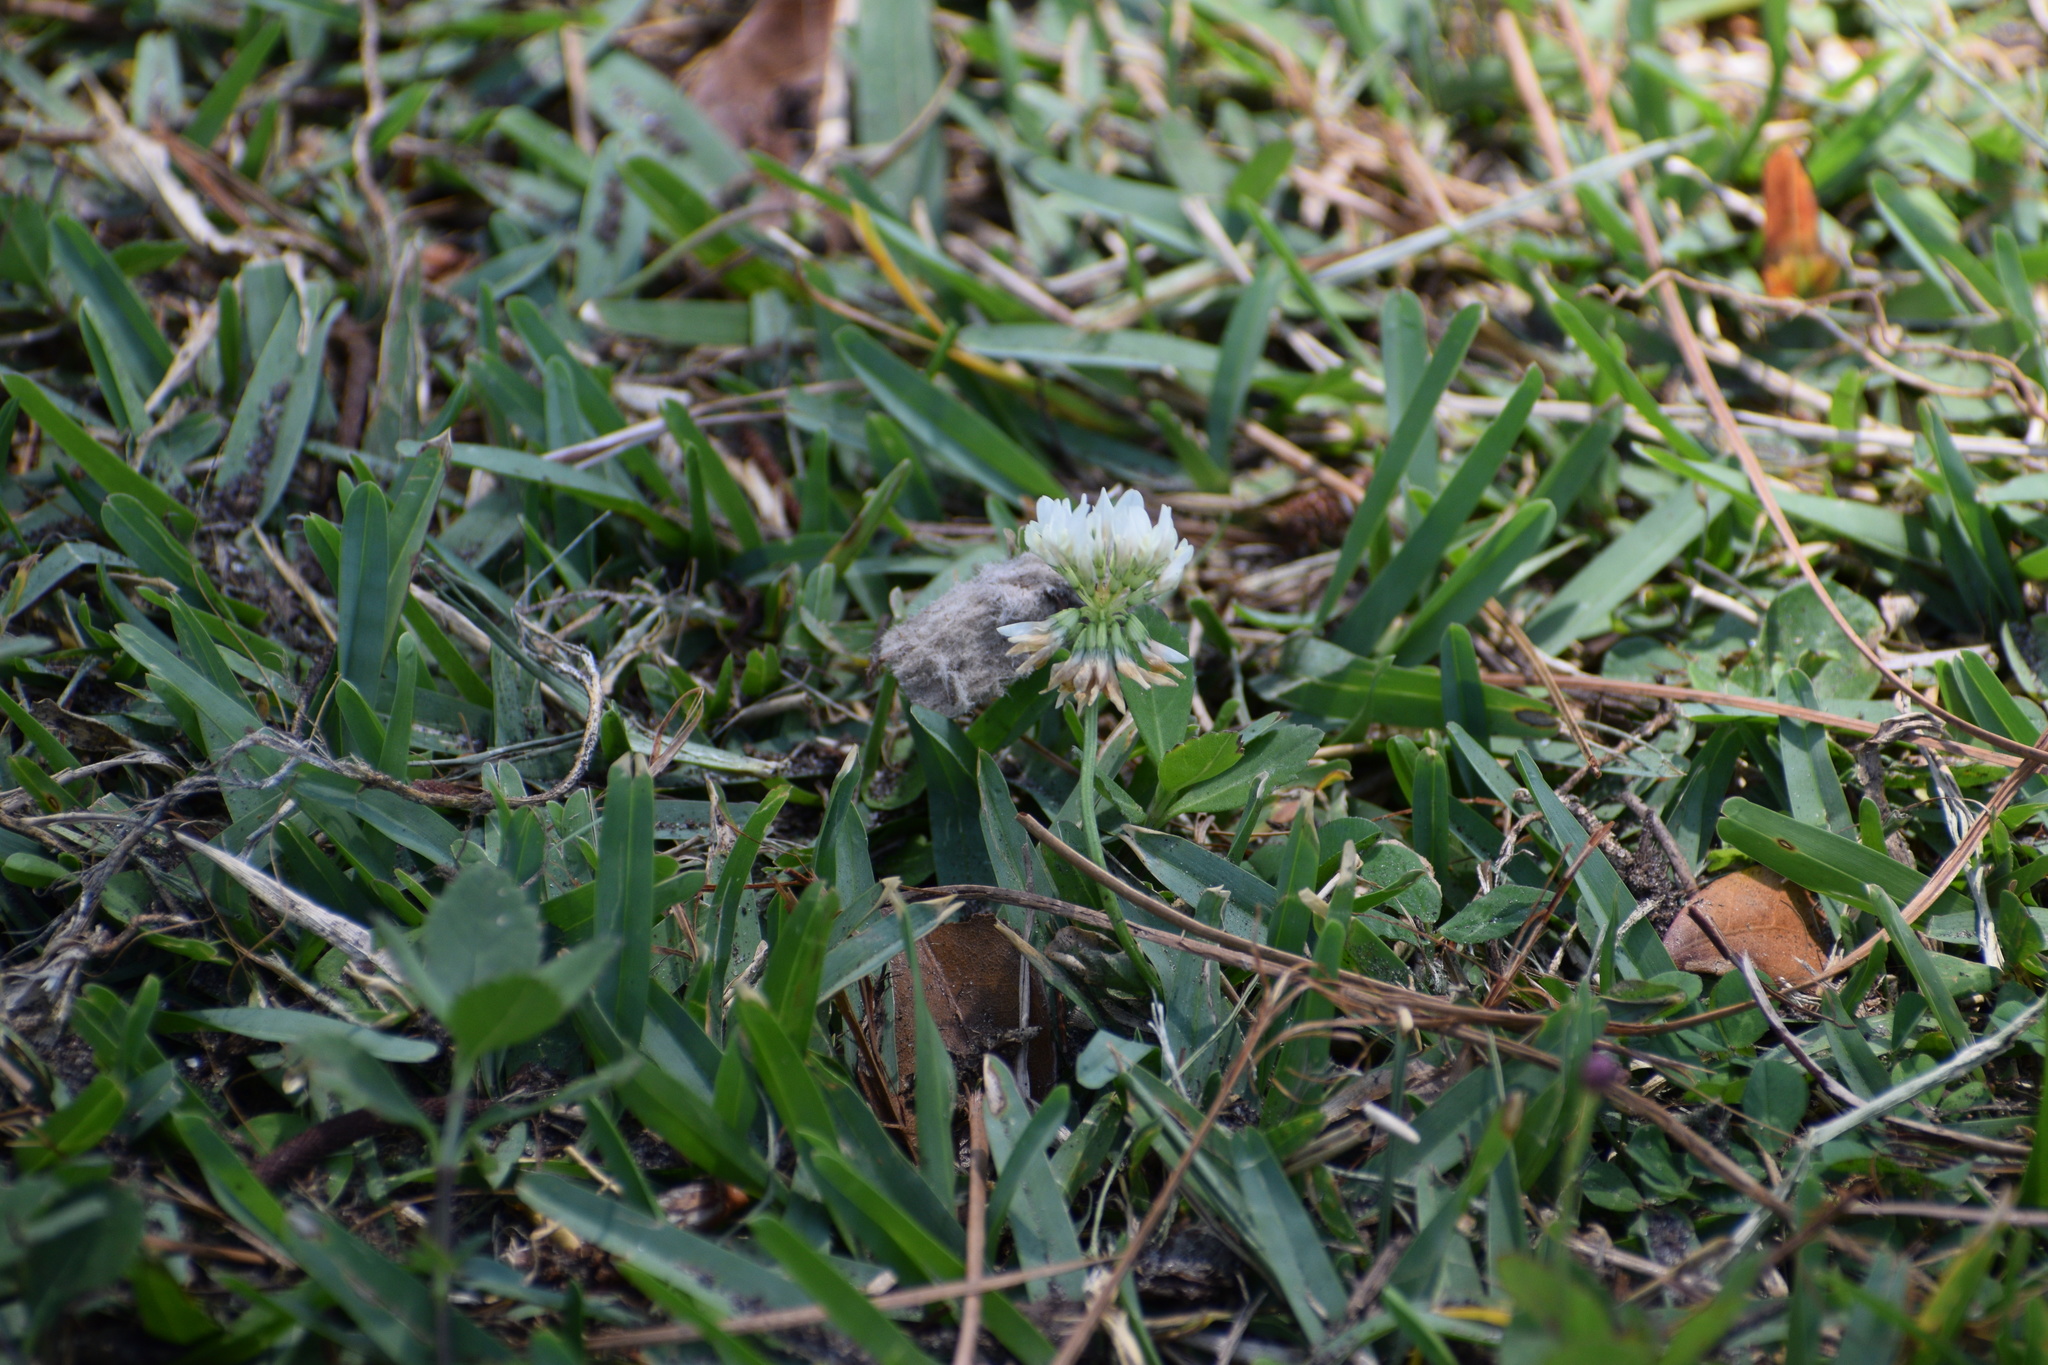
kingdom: Plantae
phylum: Tracheophyta
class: Magnoliopsida
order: Fabales
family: Fabaceae
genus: Trifolium
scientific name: Trifolium repens
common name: White clover
